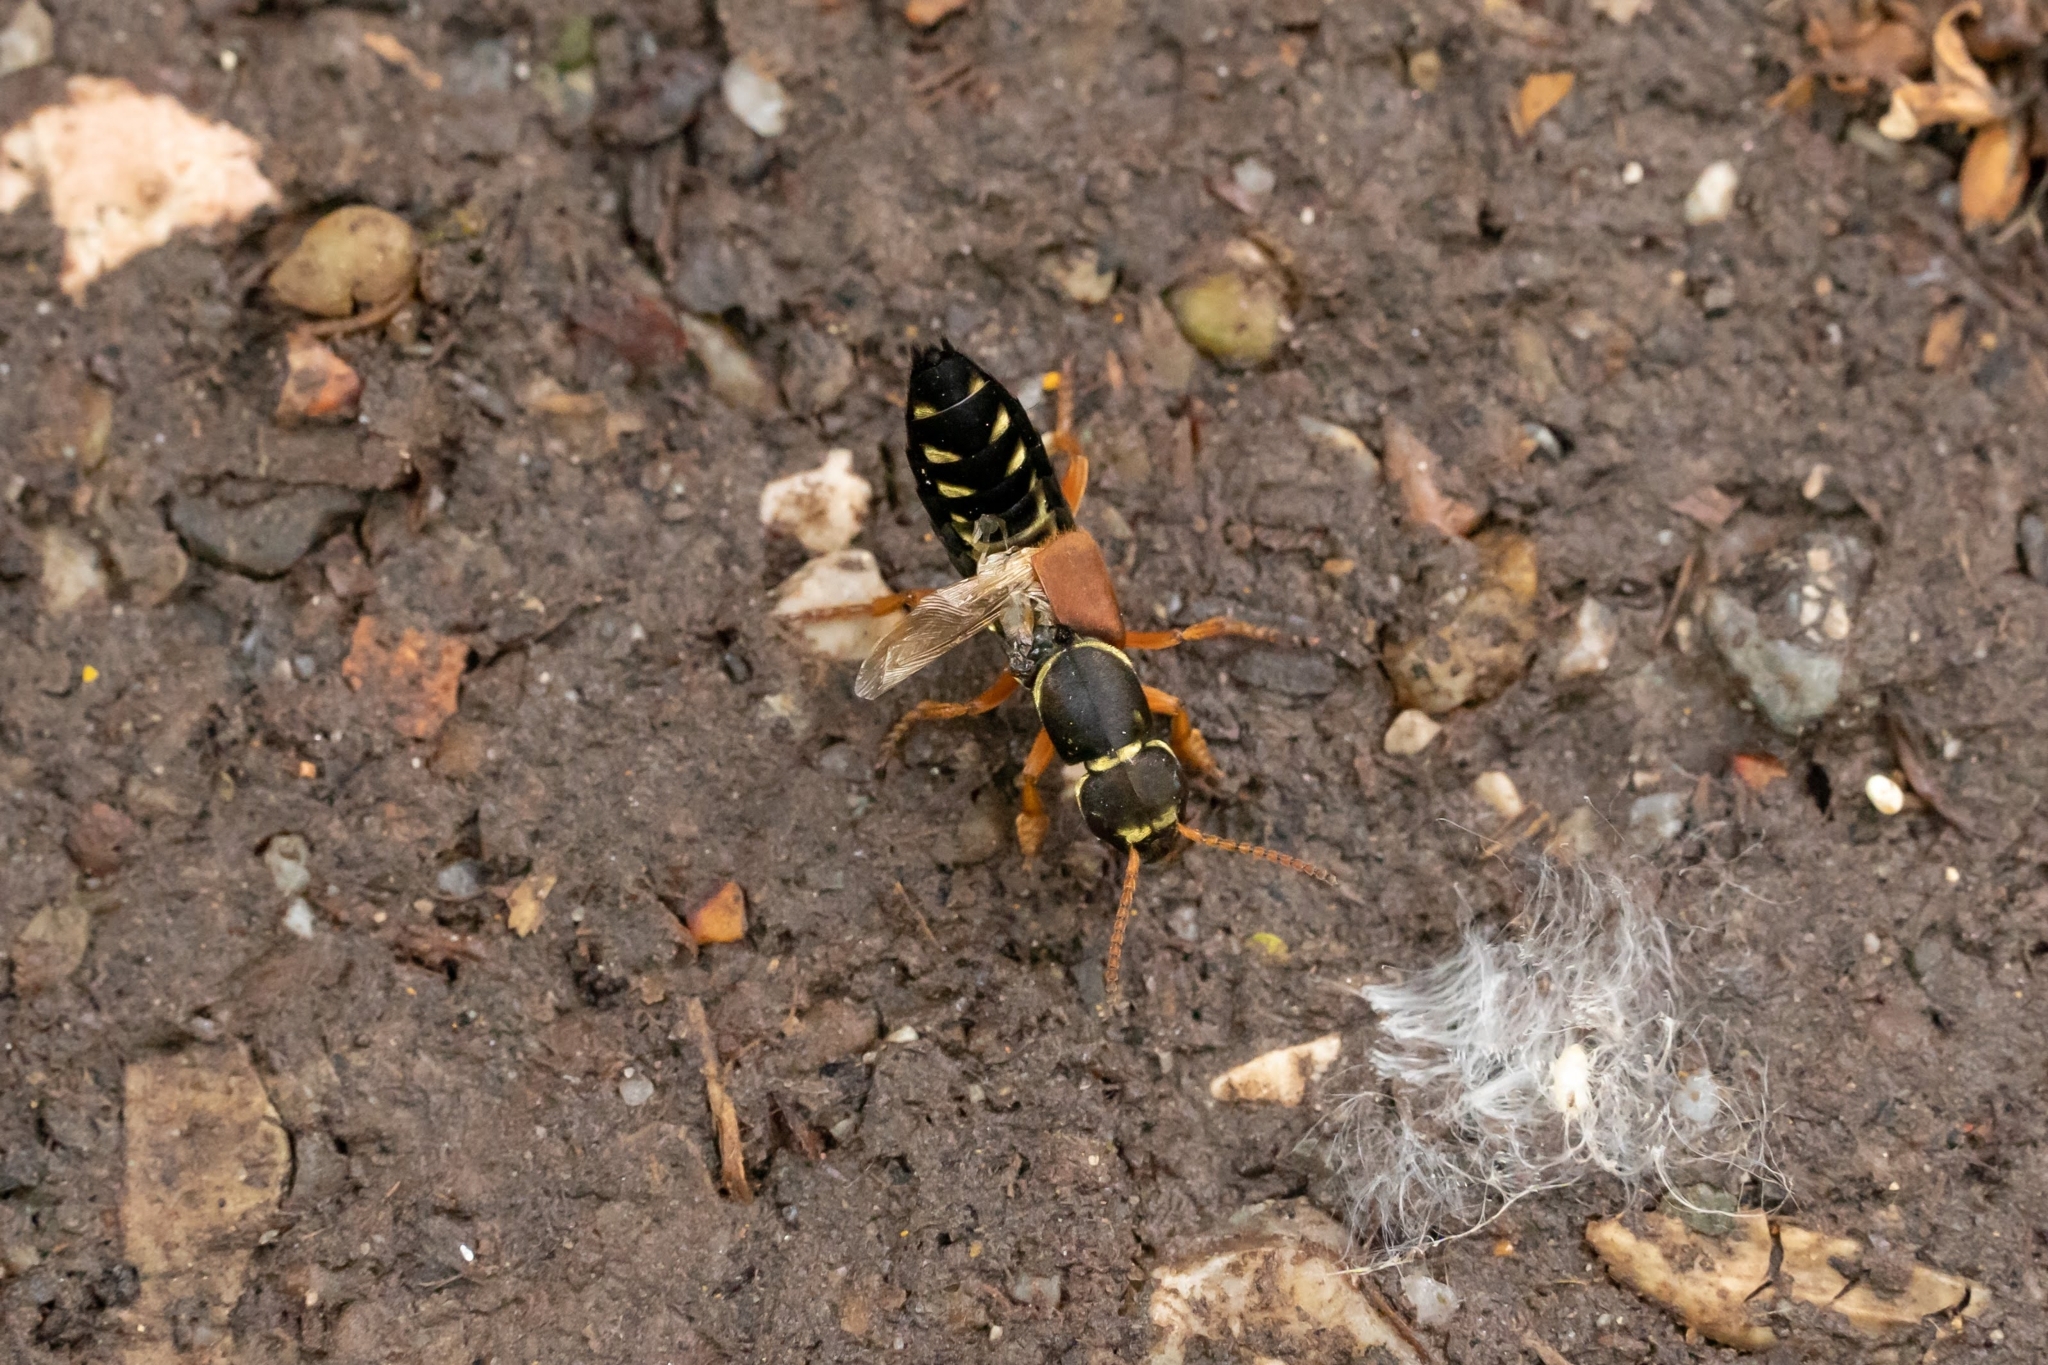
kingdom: Animalia
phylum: Arthropoda
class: Insecta
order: Coleoptera
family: Staphylinidae
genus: Staphylinus
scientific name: Staphylinus caesareus
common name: Staph beetle
